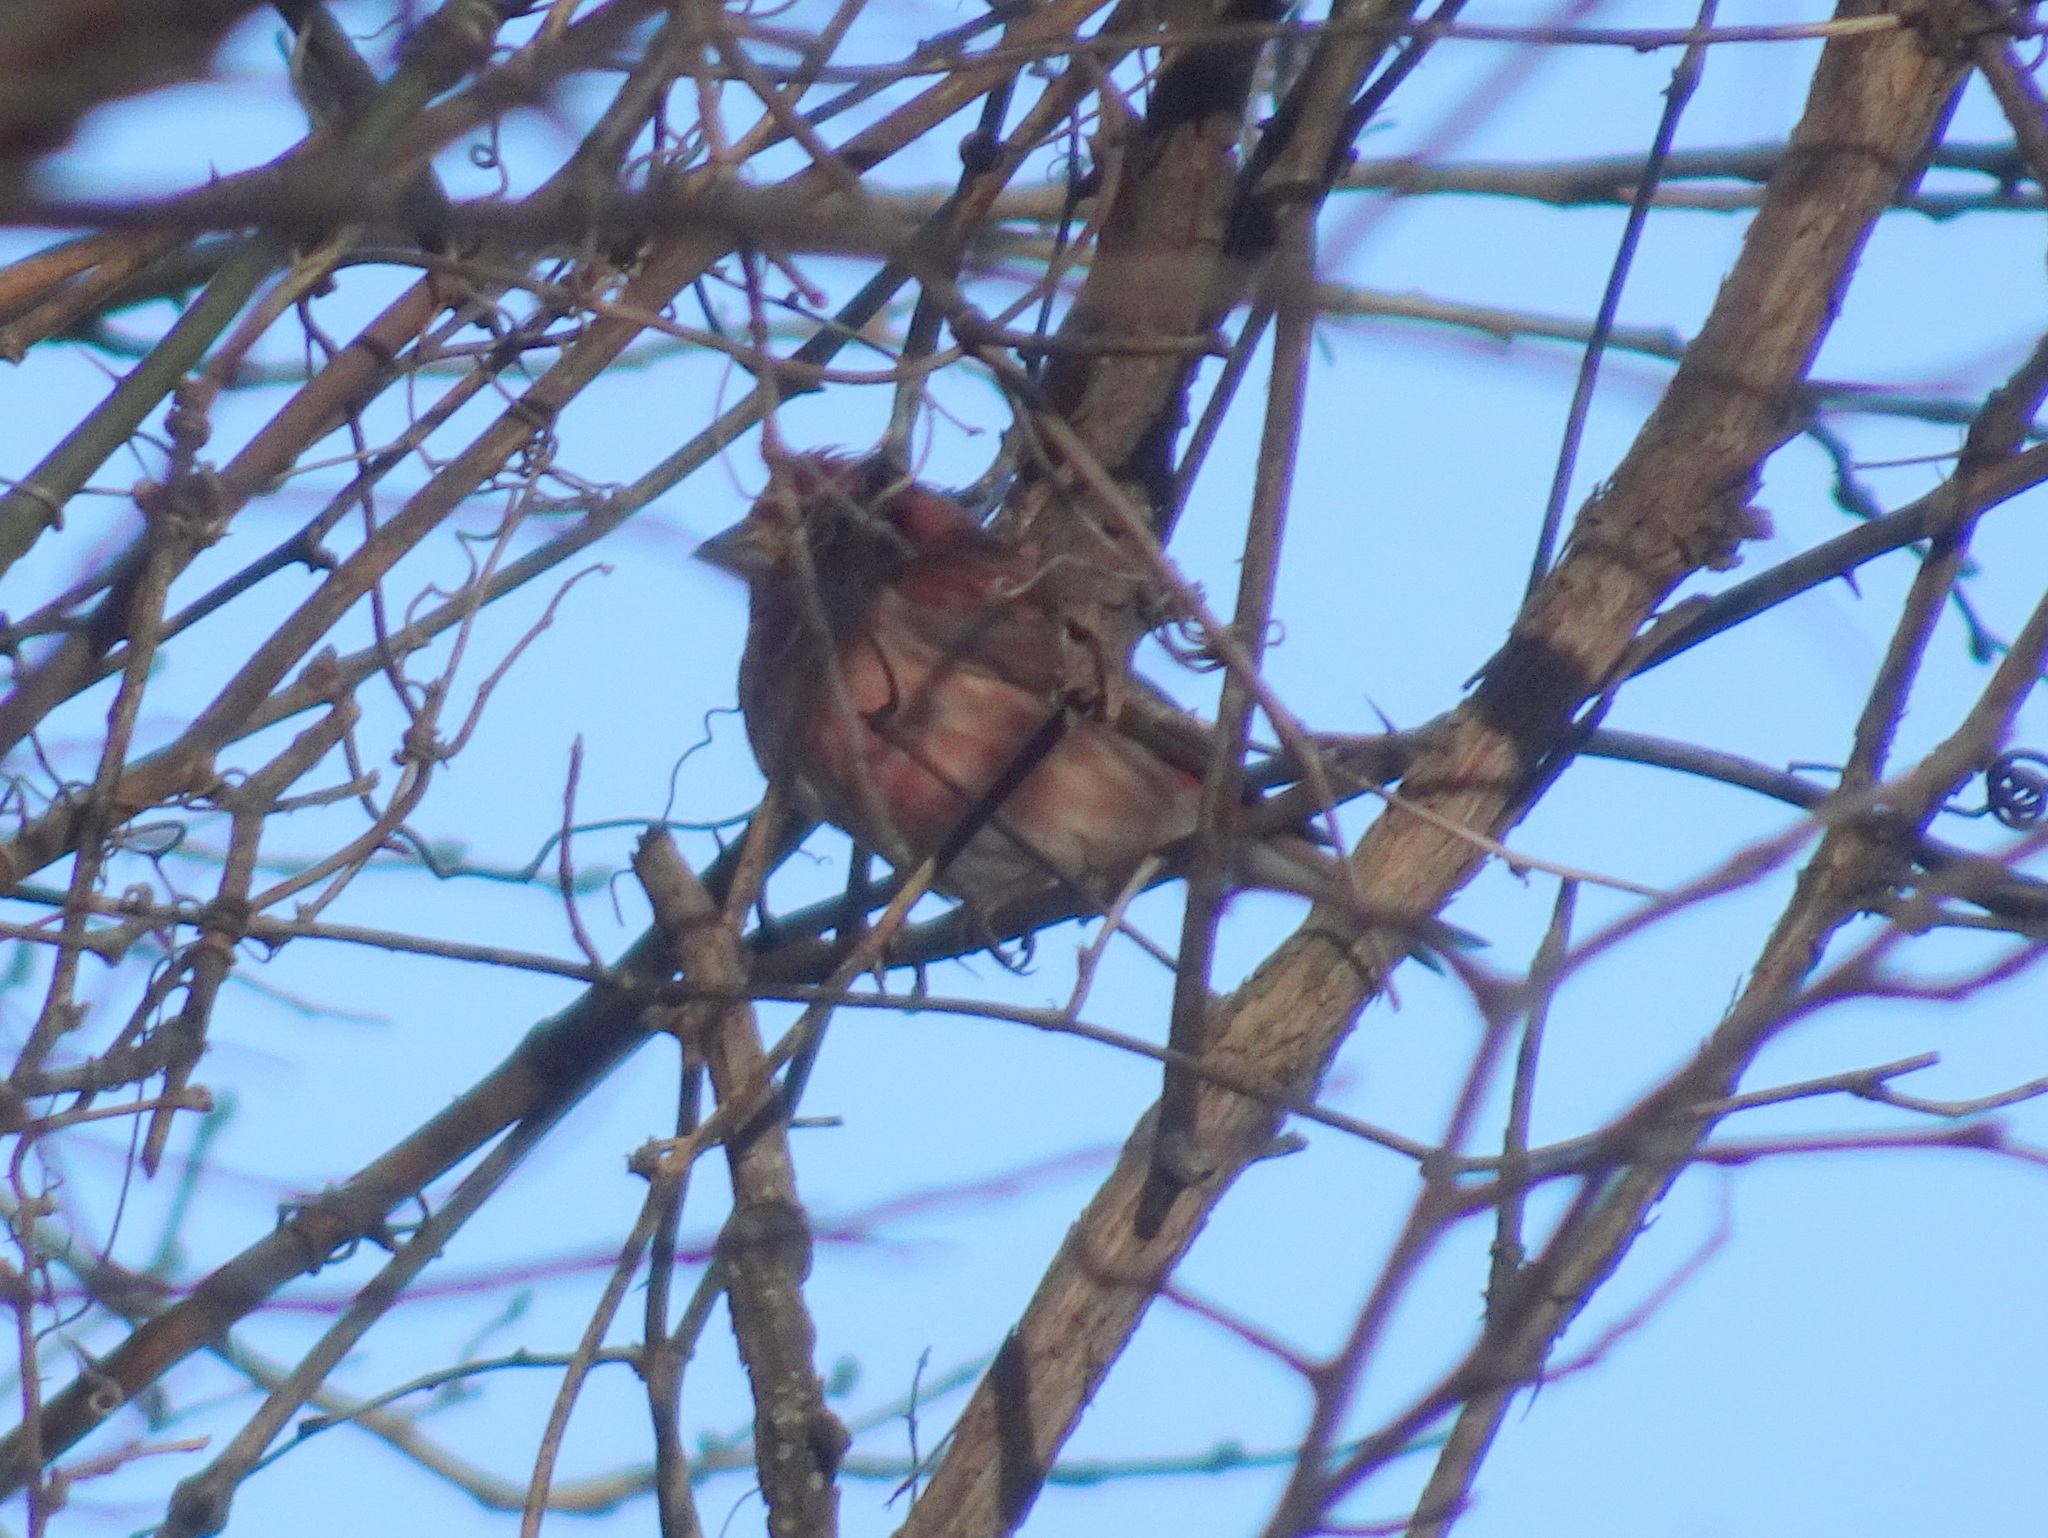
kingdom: Animalia
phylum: Chordata
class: Aves
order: Passeriformes
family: Fringillidae
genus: Haemorhous
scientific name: Haemorhous purpureus
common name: Purple finch
